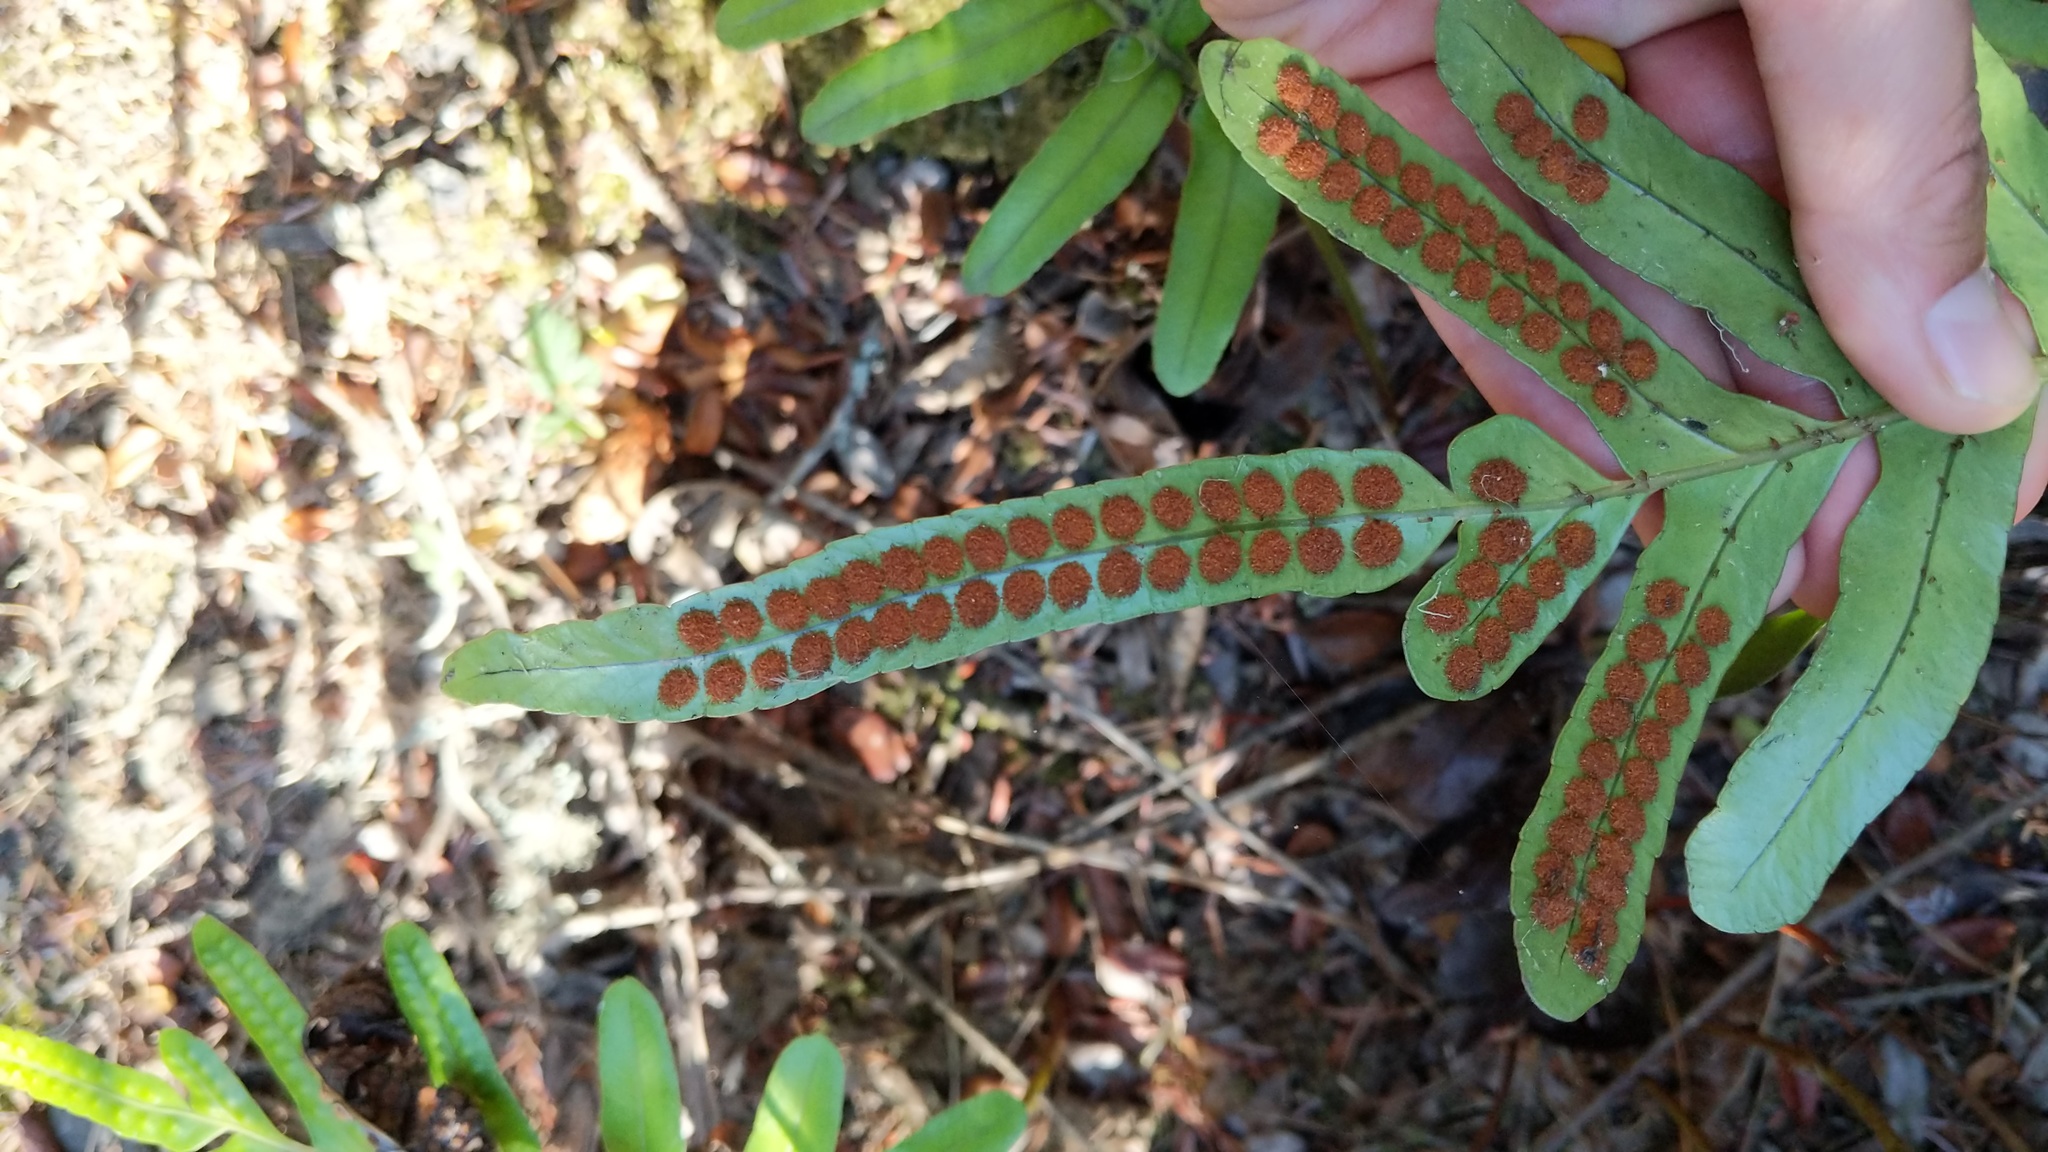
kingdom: Plantae
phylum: Tracheophyta
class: Polypodiopsida
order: Polypodiales
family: Polypodiaceae
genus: Polypodium
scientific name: Polypodium scouleri
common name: Scouler's polypody
